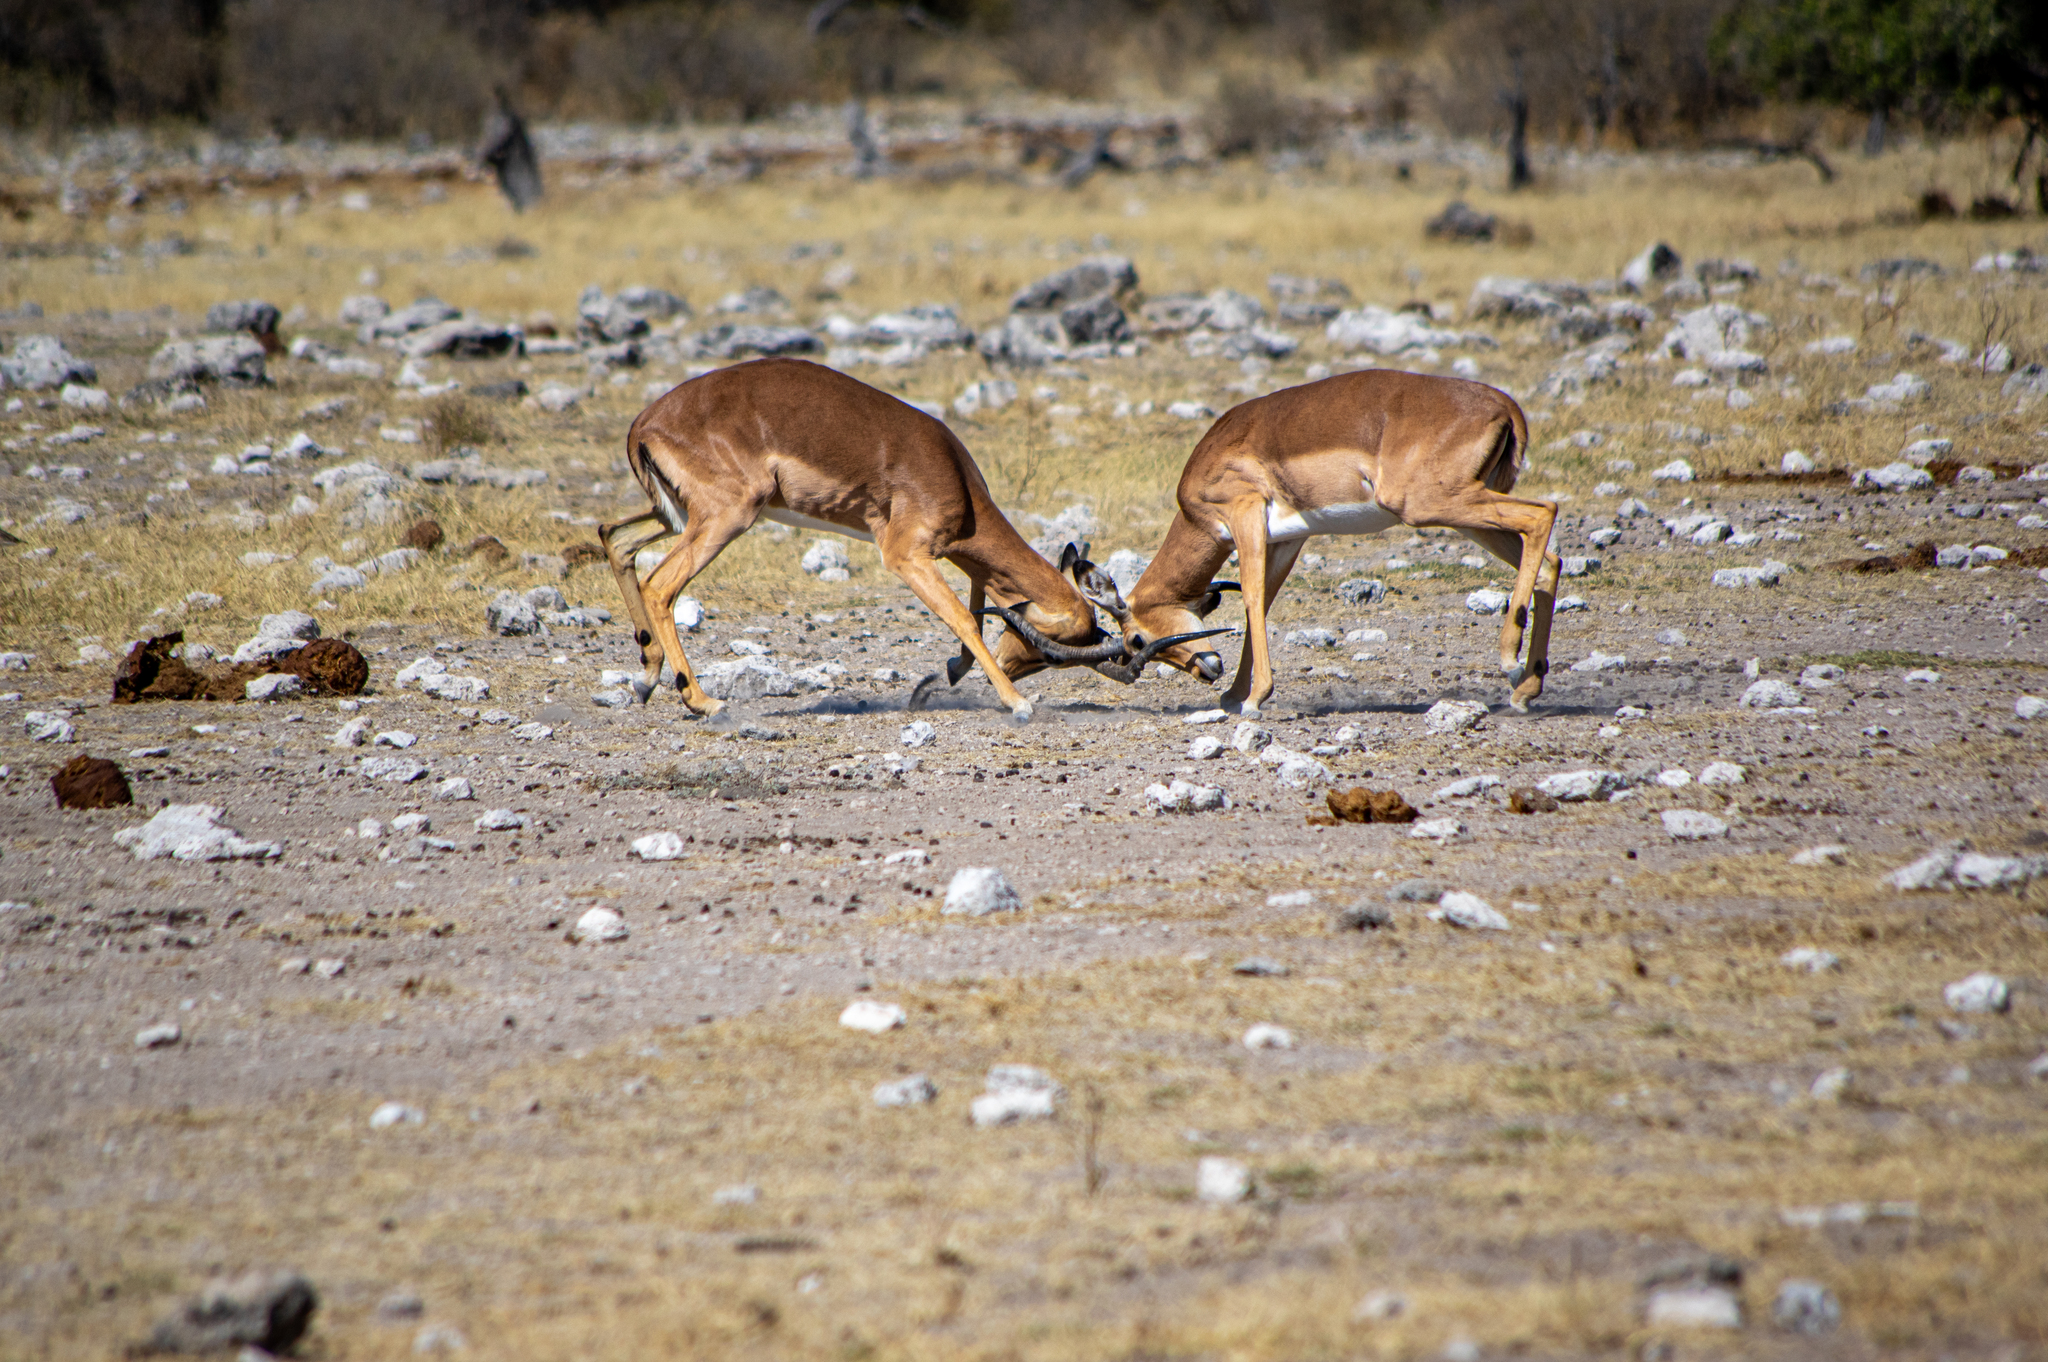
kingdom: Animalia
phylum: Chordata
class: Mammalia
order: Artiodactyla
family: Bovidae
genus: Aepyceros
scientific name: Aepyceros melampus
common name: Impala
